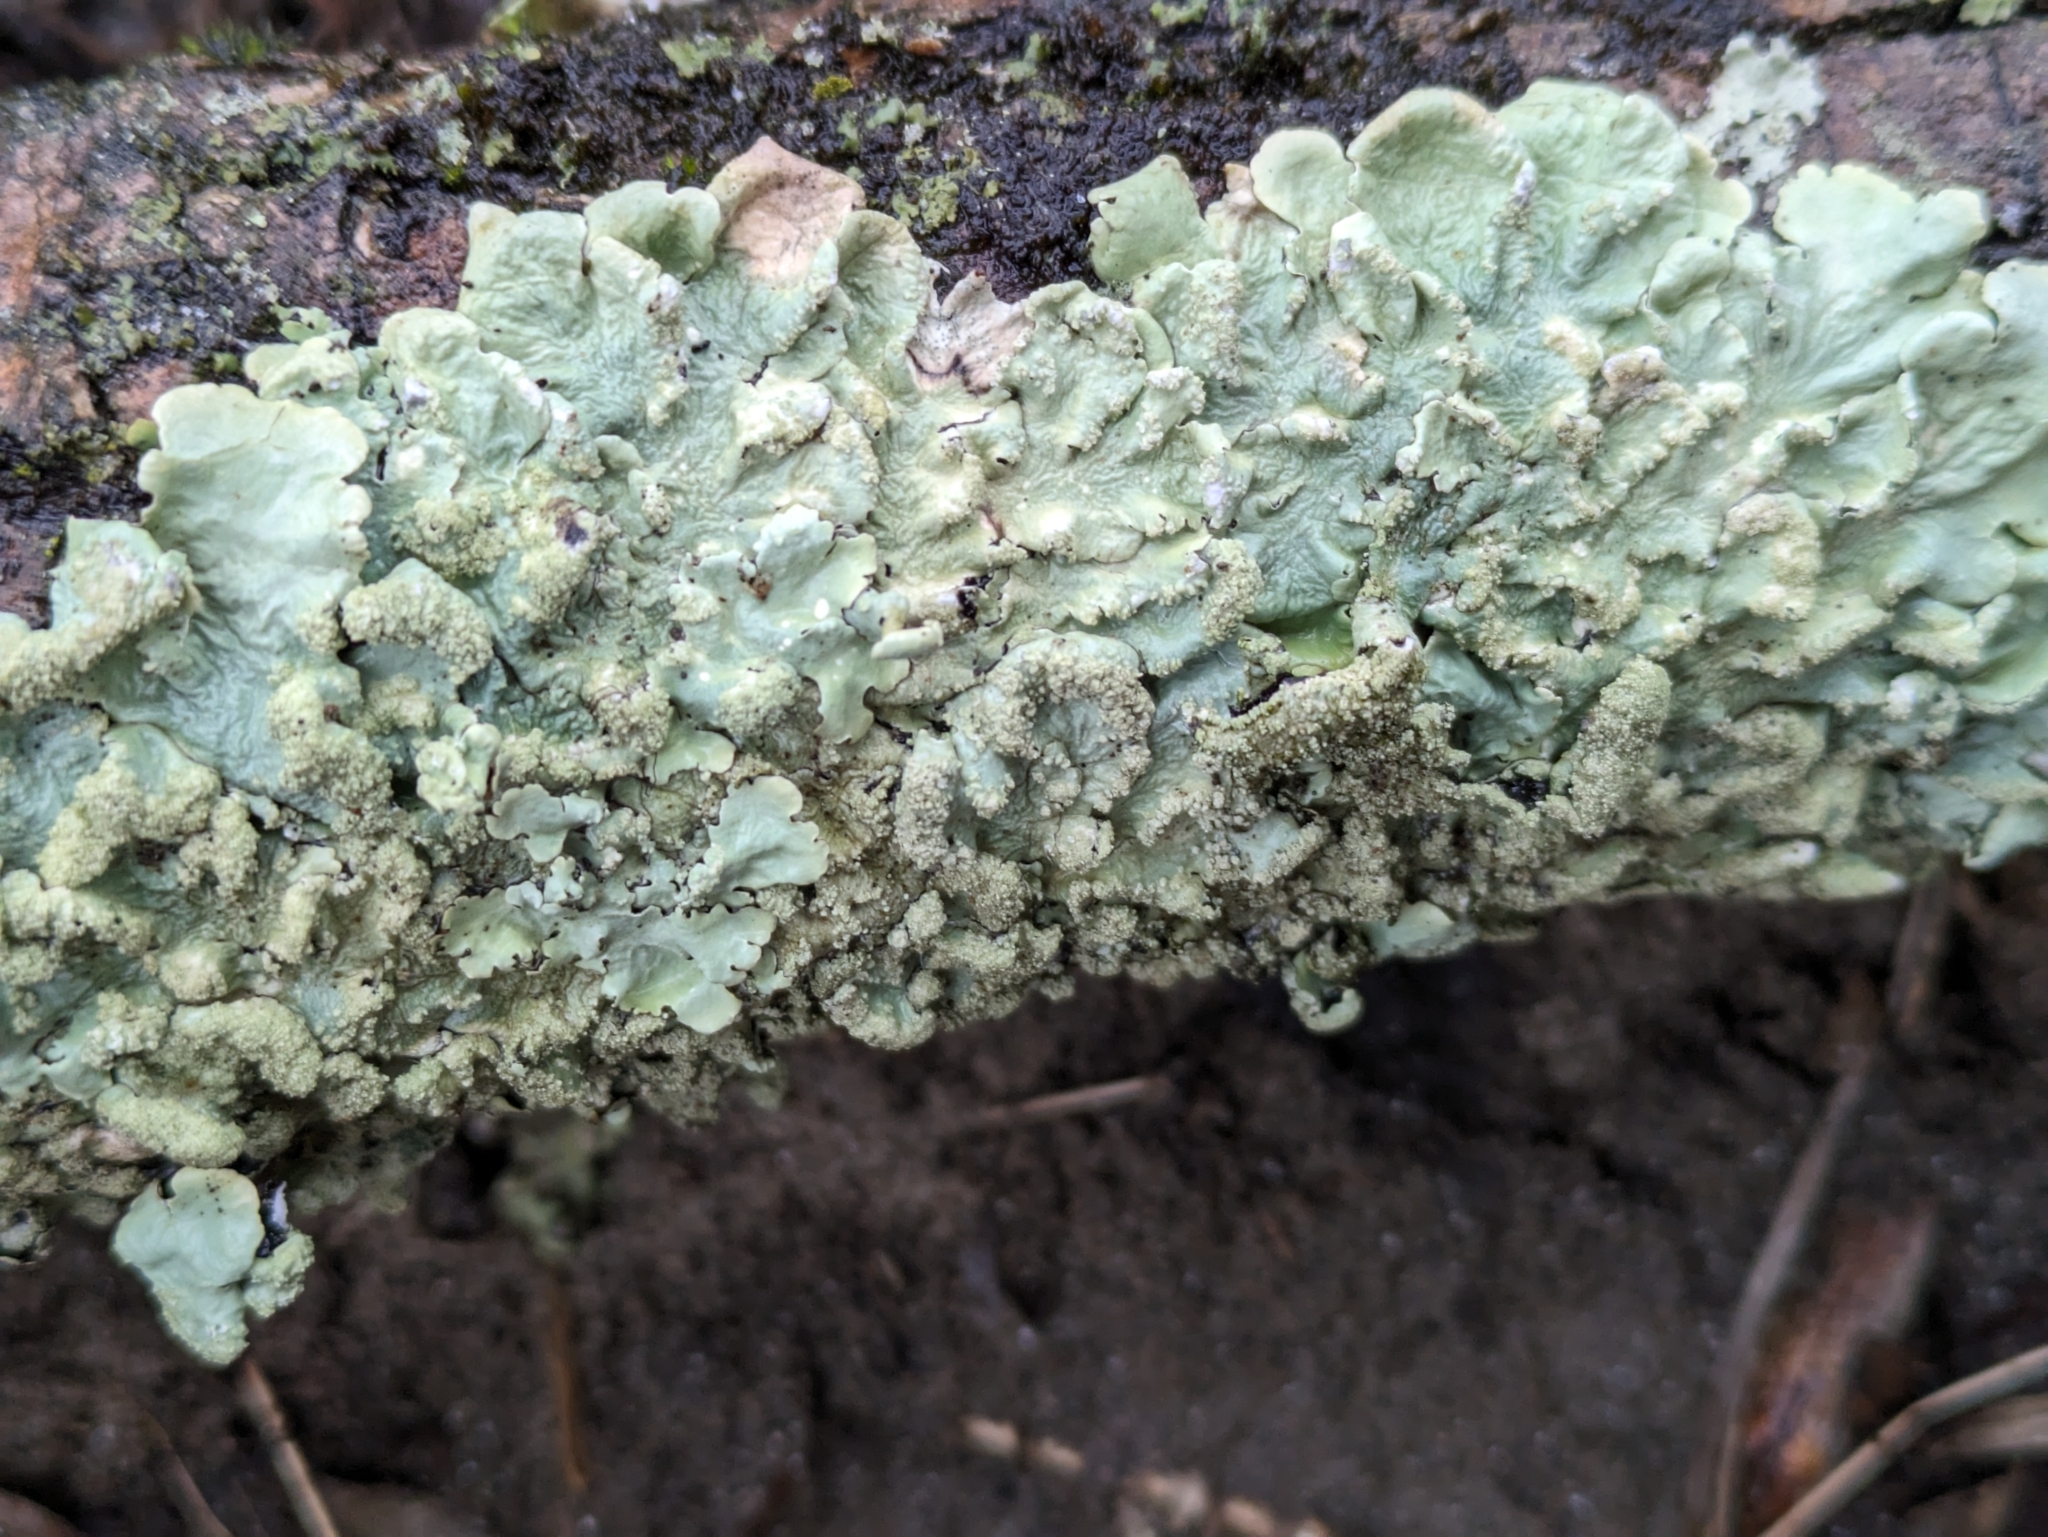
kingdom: Fungi
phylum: Ascomycota
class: Lecanoromycetes
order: Lecanorales
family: Parmeliaceae
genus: Flavoparmelia
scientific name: Flavoparmelia caperata
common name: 40-mile per hour lichen
